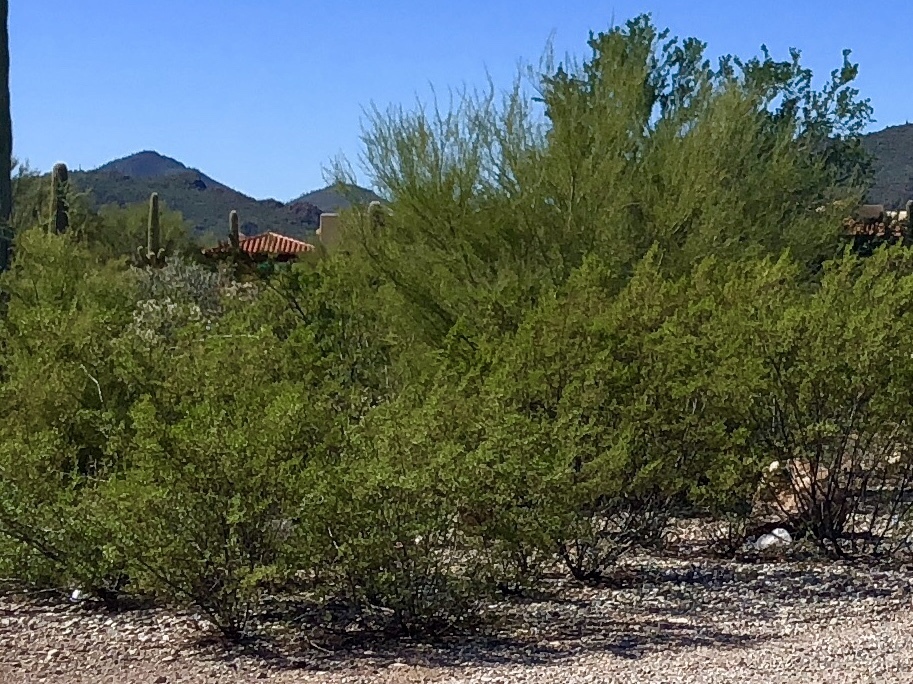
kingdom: Plantae
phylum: Tracheophyta
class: Magnoliopsida
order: Zygophyllales
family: Zygophyllaceae
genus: Larrea
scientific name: Larrea tridentata
